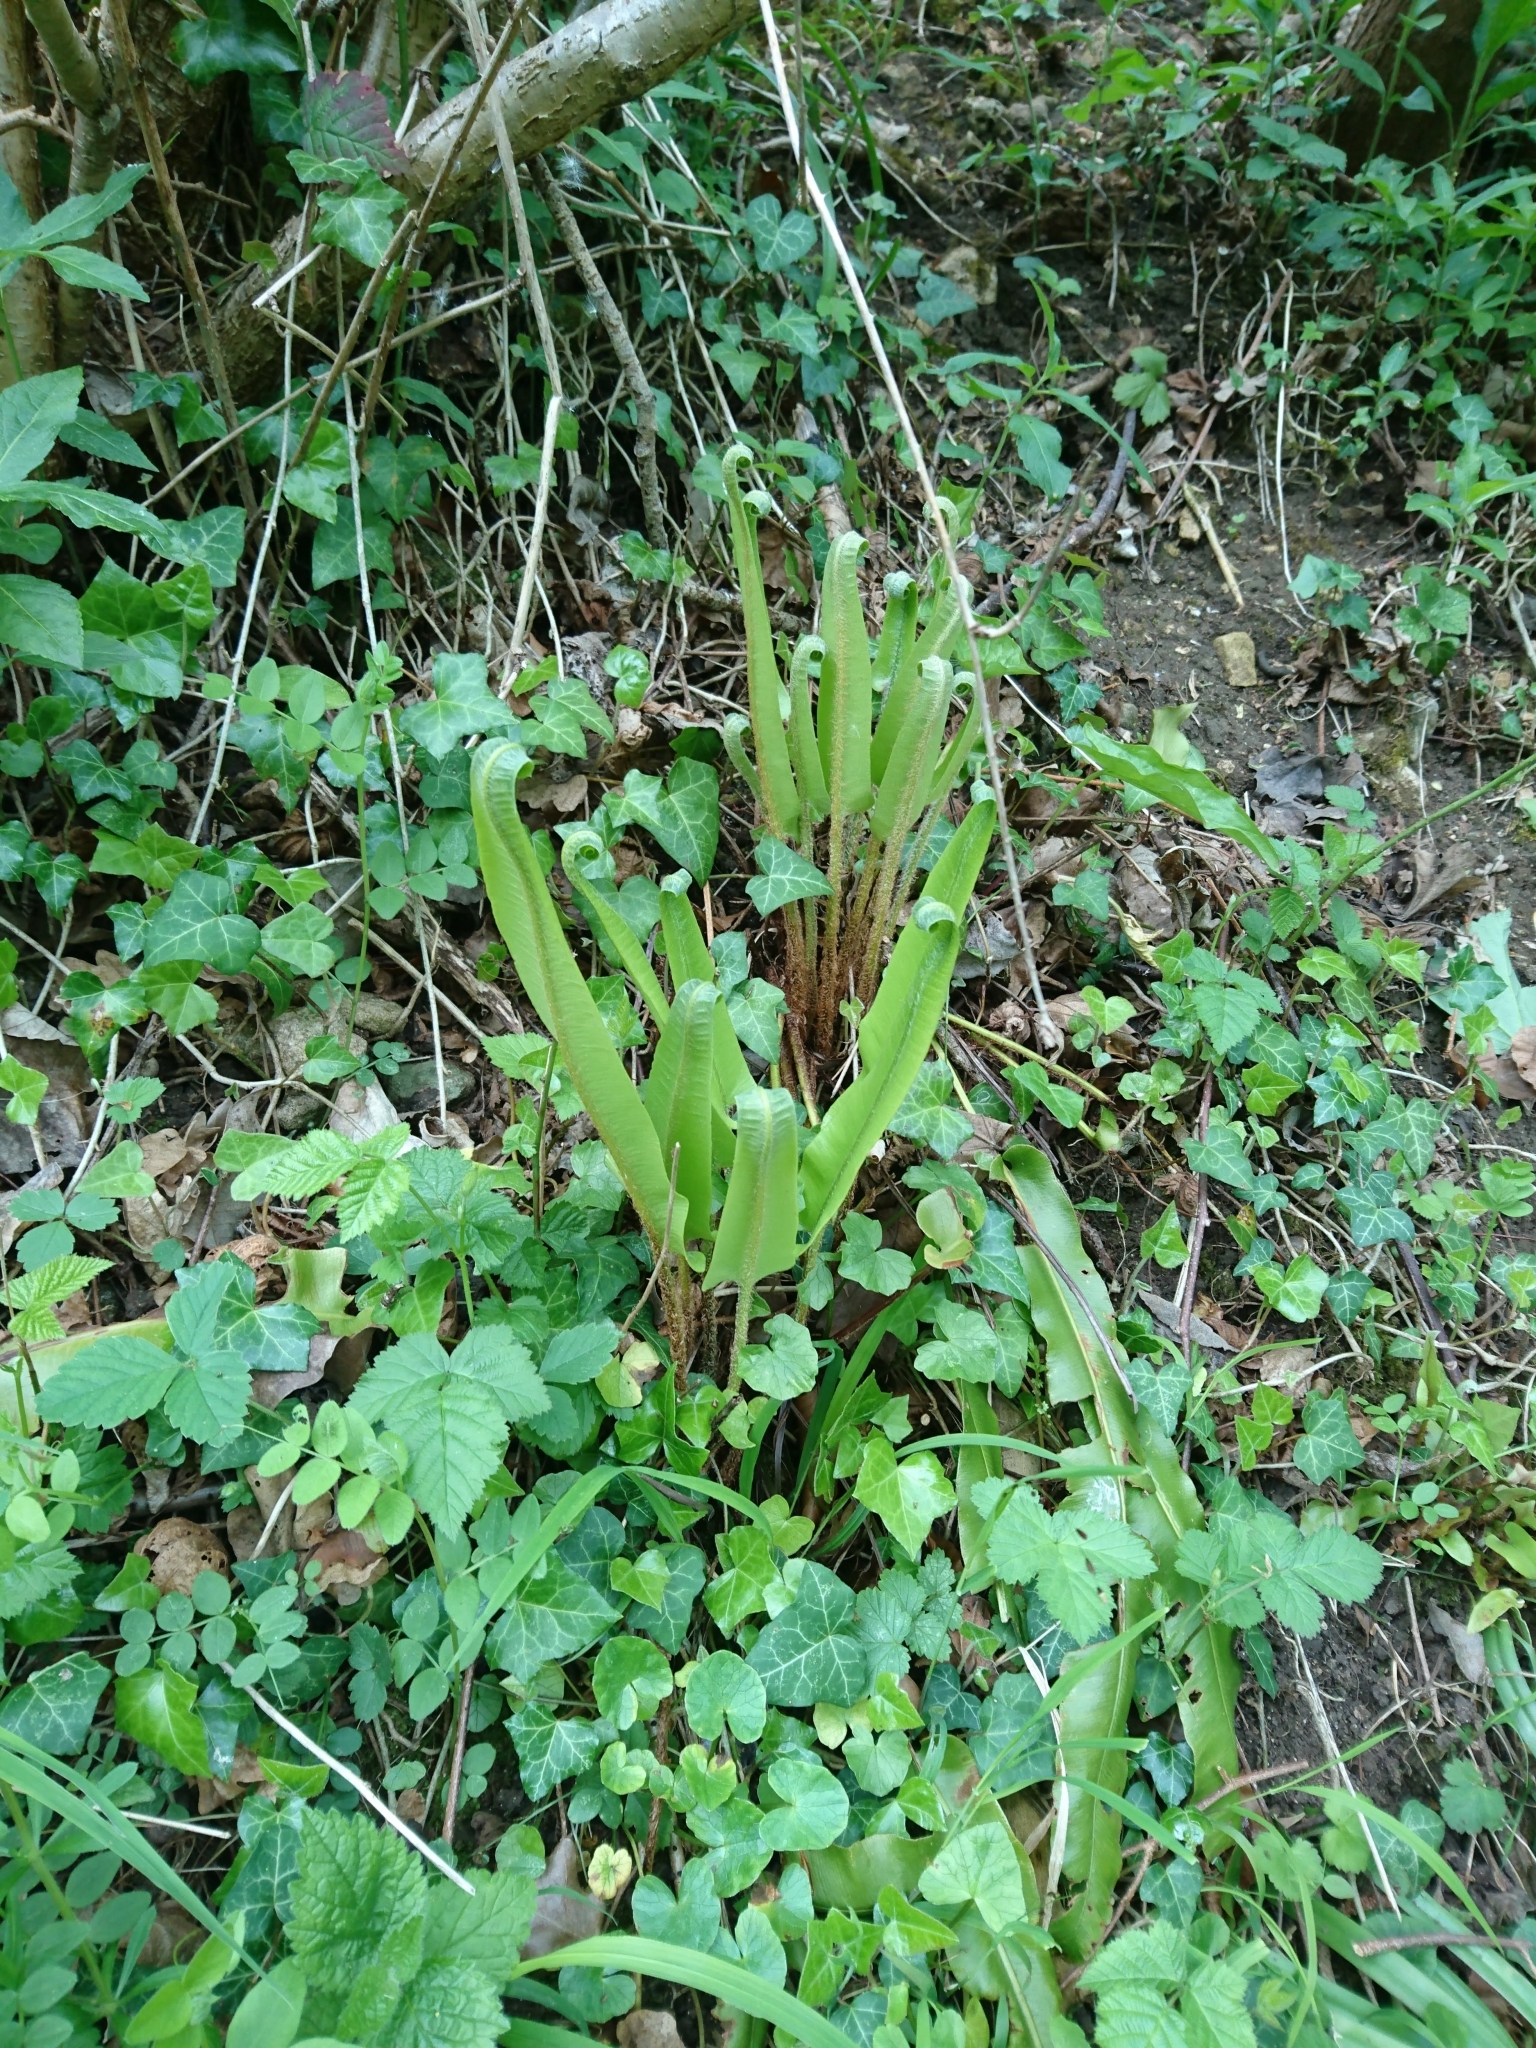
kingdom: Plantae
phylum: Tracheophyta
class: Polypodiopsida
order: Polypodiales
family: Aspleniaceae
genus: Asplenium
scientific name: Asplenium scolopendrium
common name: Hart's-tongue fern
